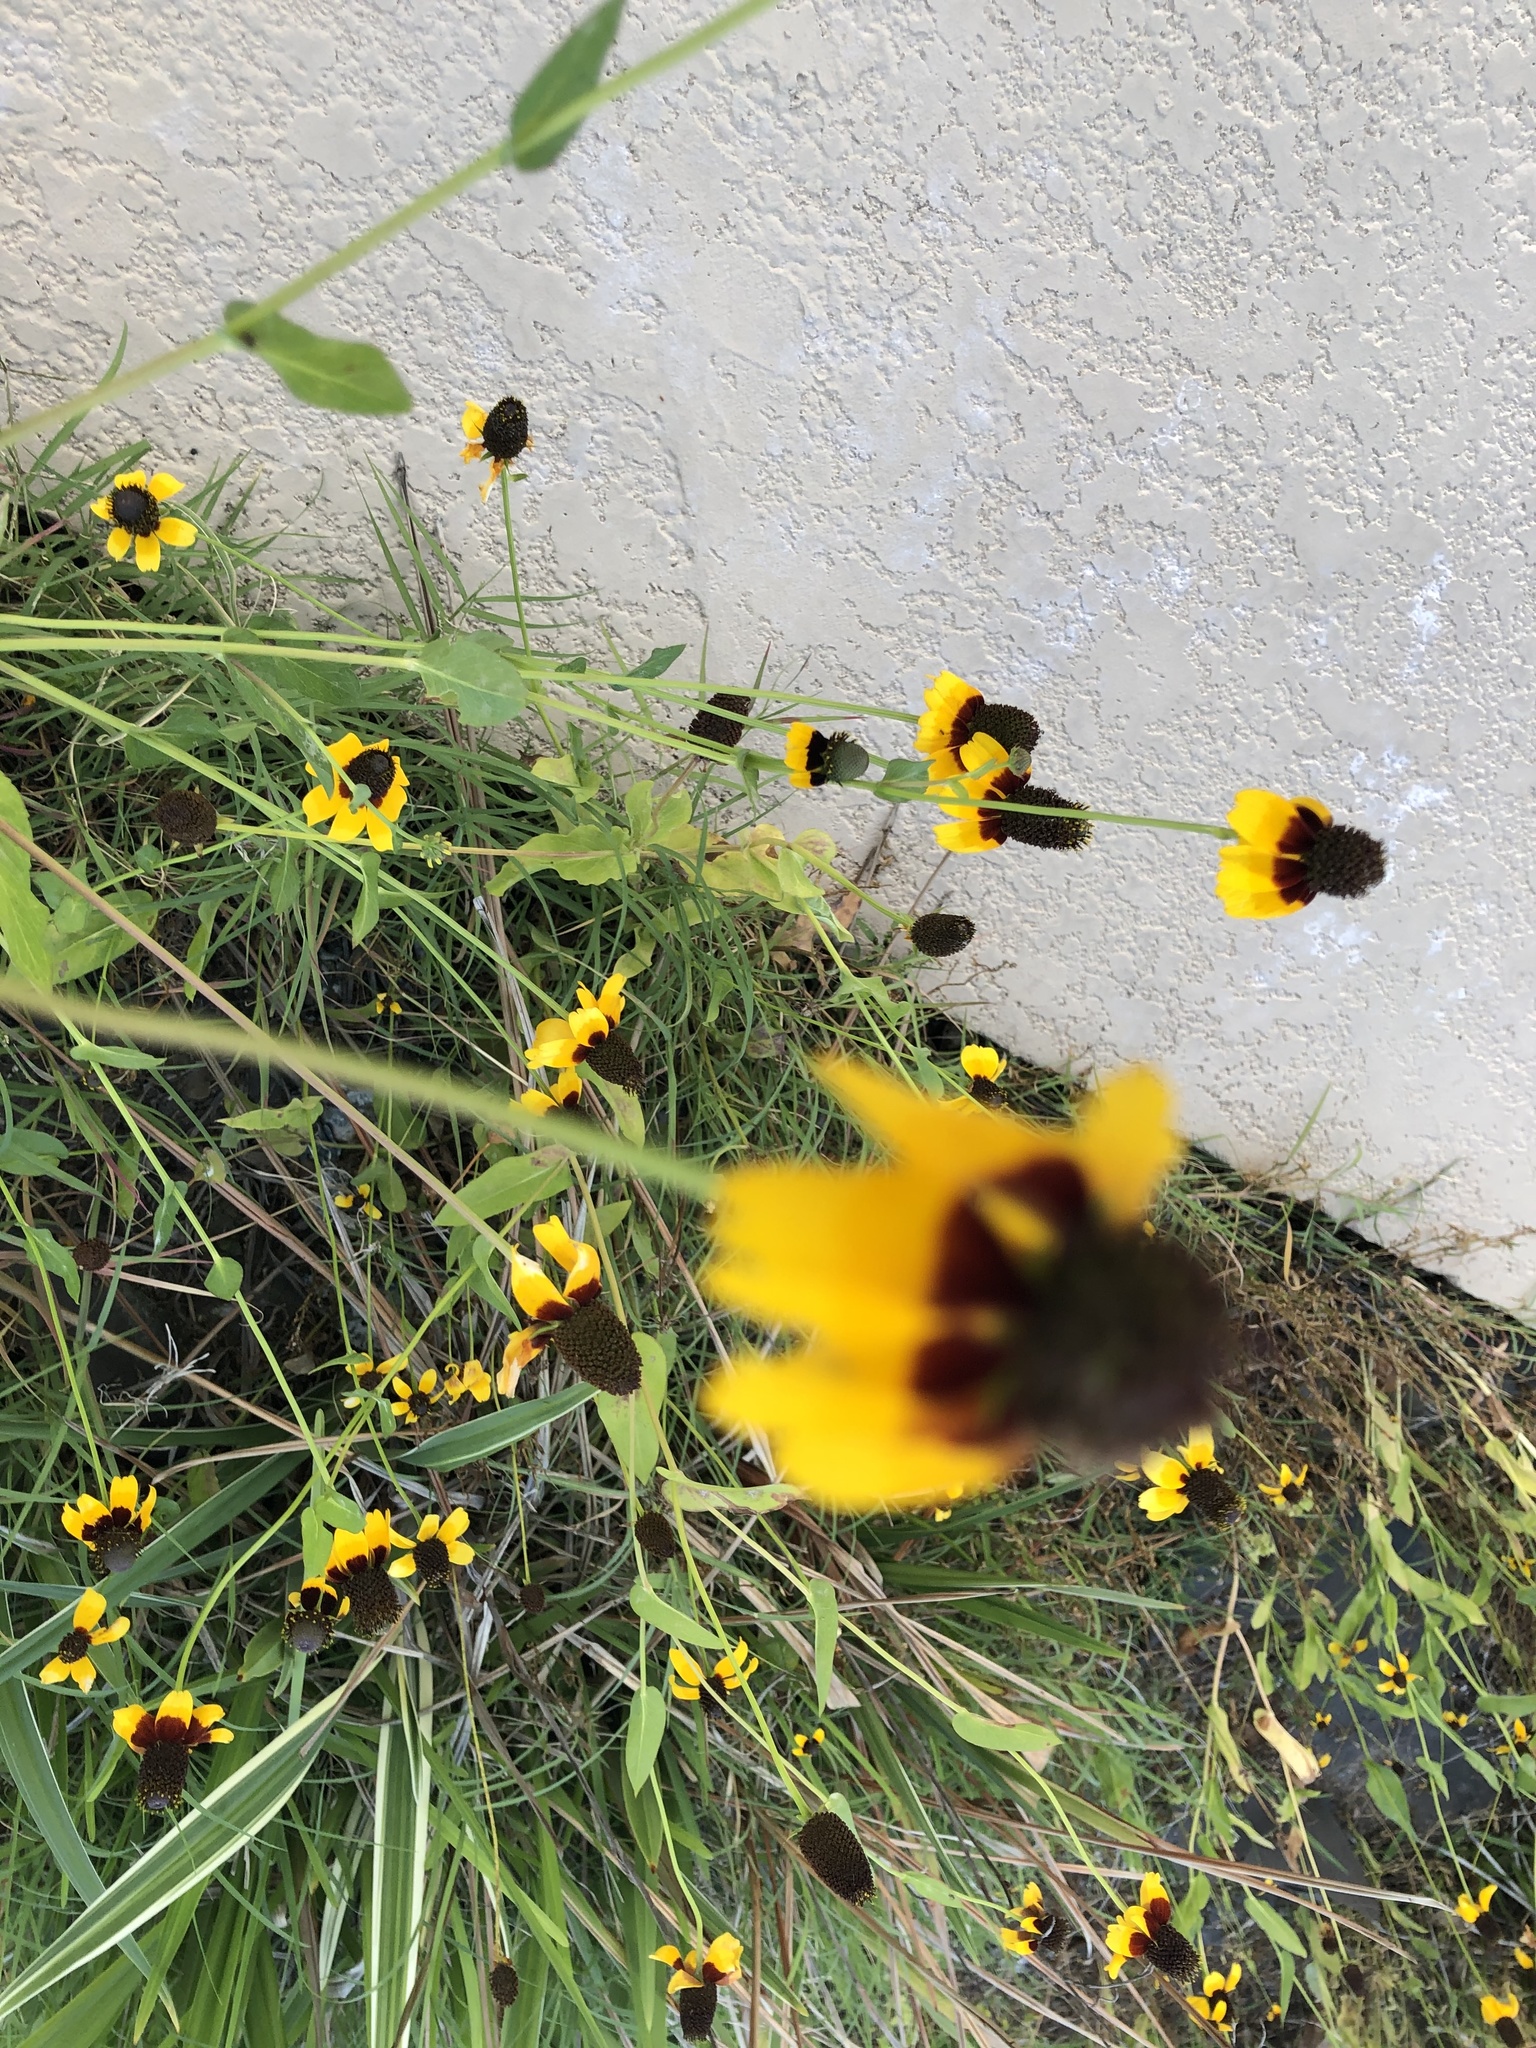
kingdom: Plantae
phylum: Tracheophyta
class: Magnoliopsida
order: Asterales
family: Asteraceae
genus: Rudbeckia
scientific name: Rudbeckia amplexicaulis
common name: Clasping-leaf coneflower
